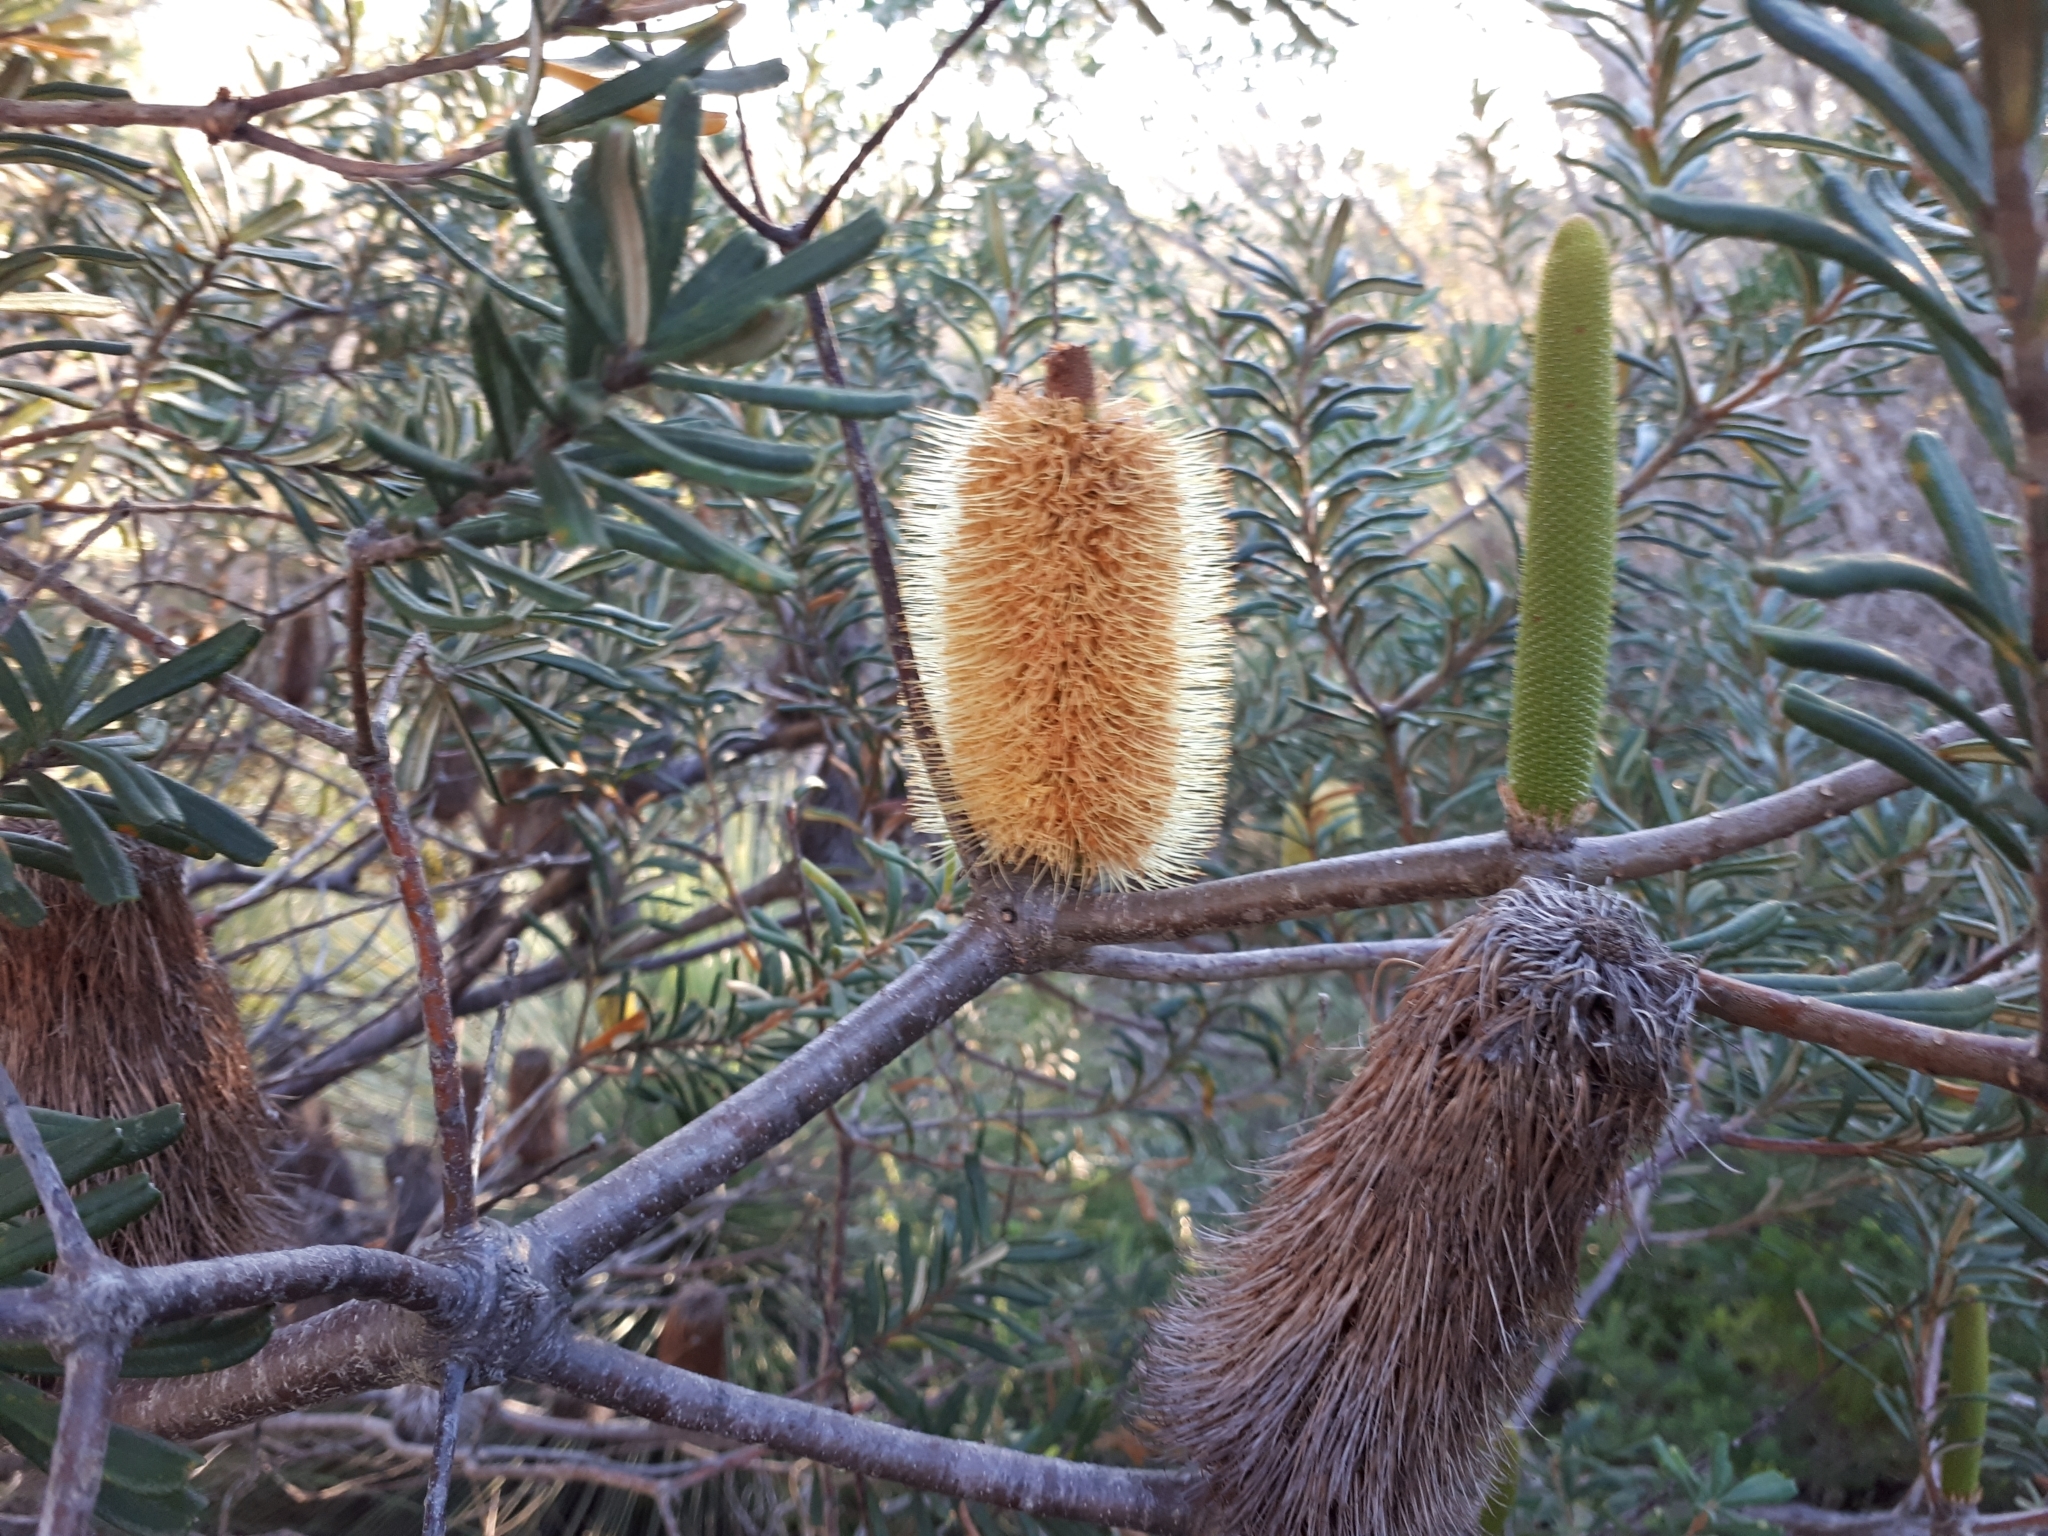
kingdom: Plantae
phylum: Tracheophyta
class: Magnoliopsida
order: Proteales
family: Proteaceae
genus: Banksia
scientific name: Banksia marginata
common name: Silver banksia
